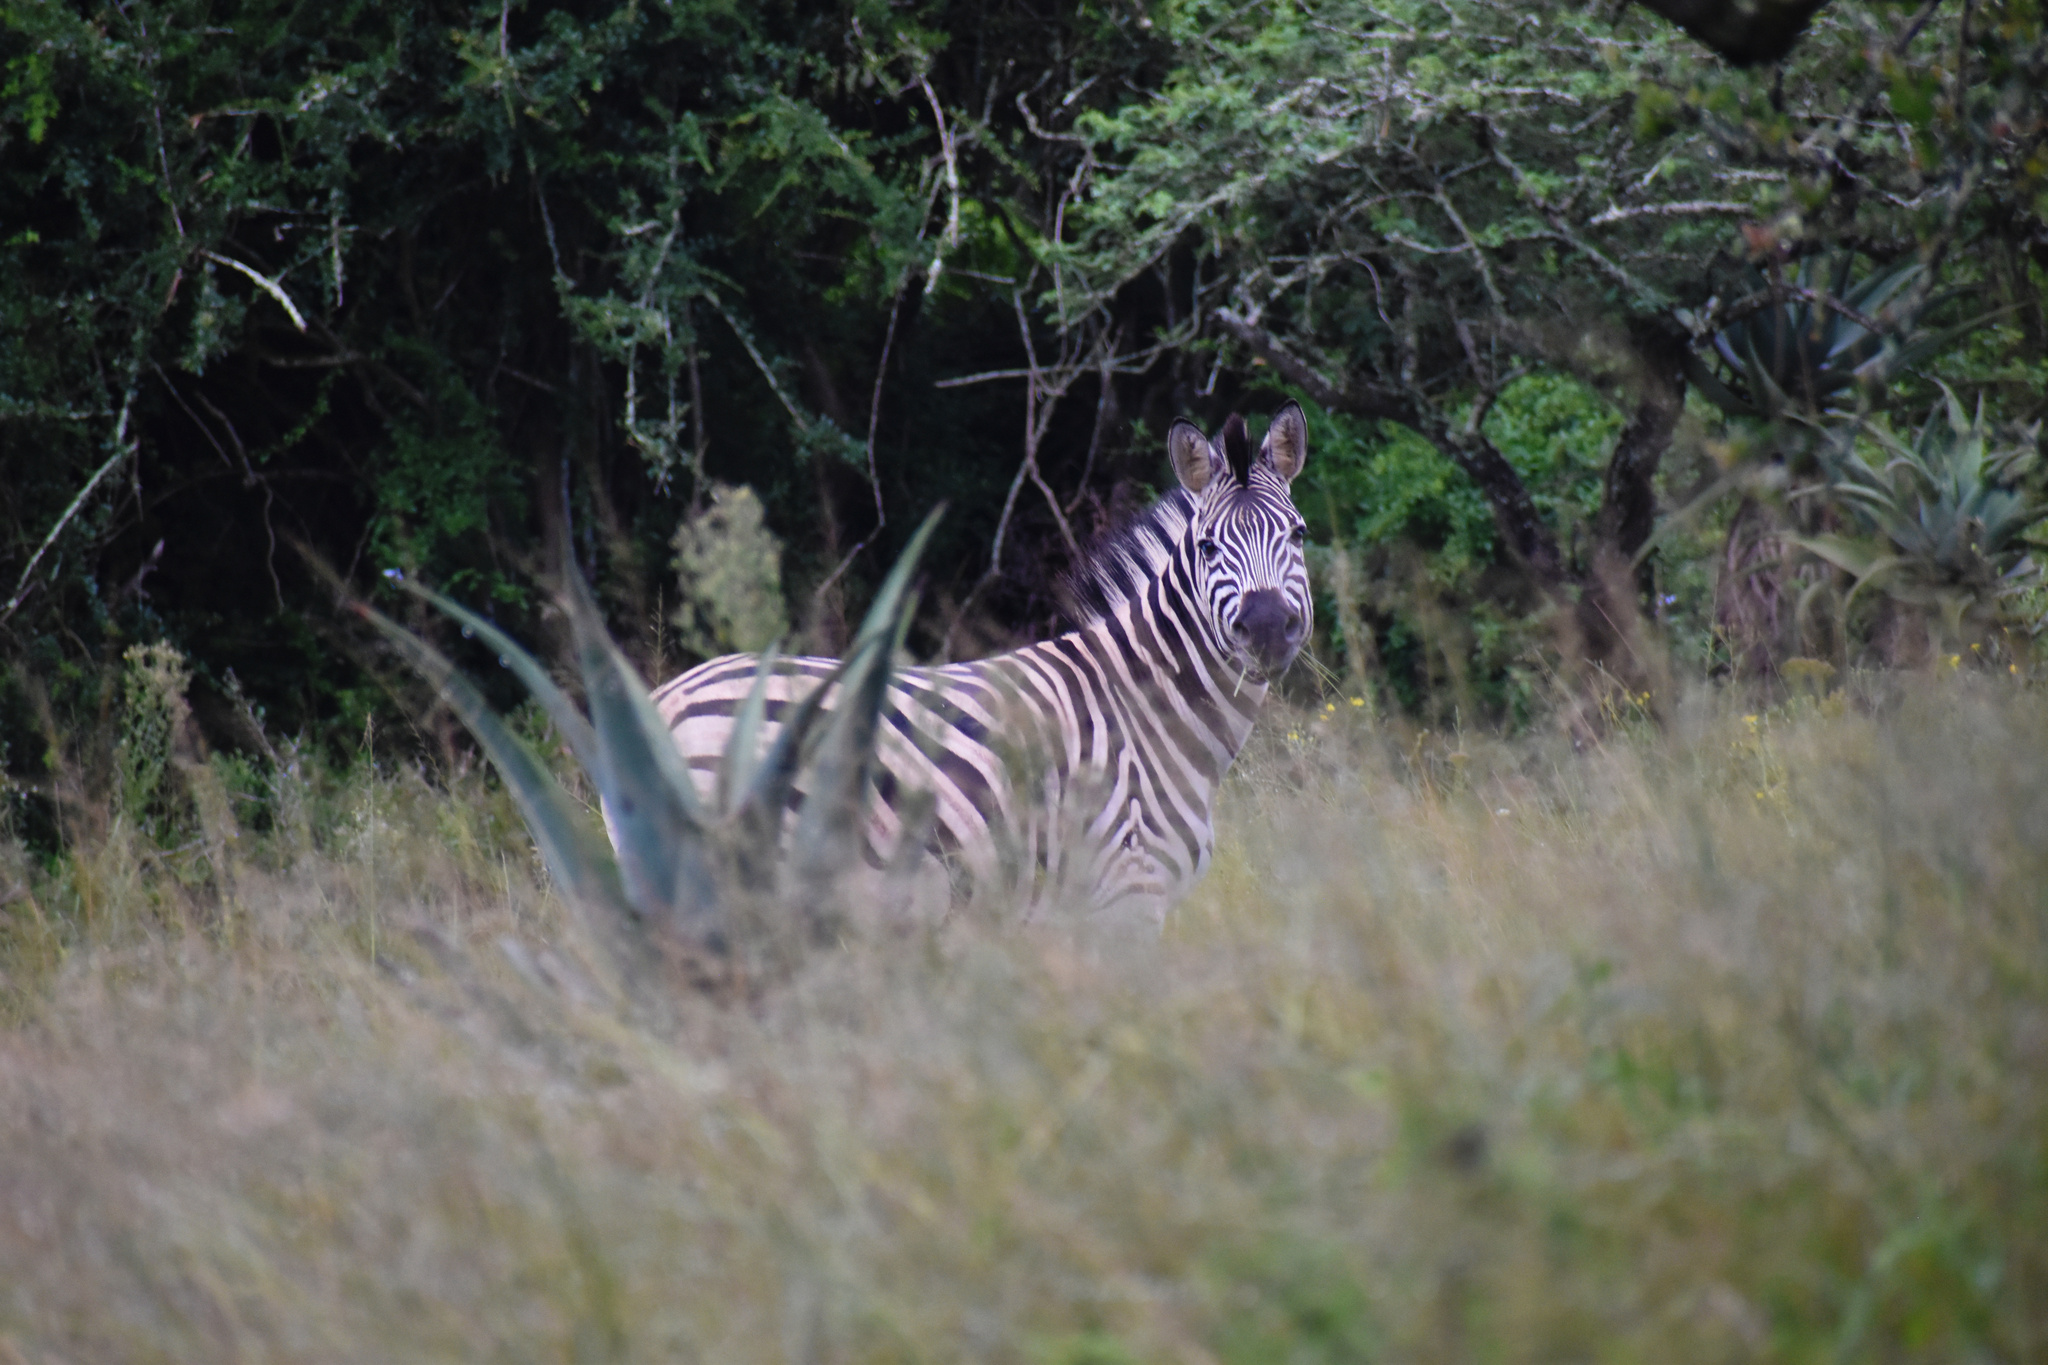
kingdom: Animalia
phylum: Chordata
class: Mammalia
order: Perissodactyla
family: Equidae
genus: Equus
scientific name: Equus quagga
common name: Plains zebra
